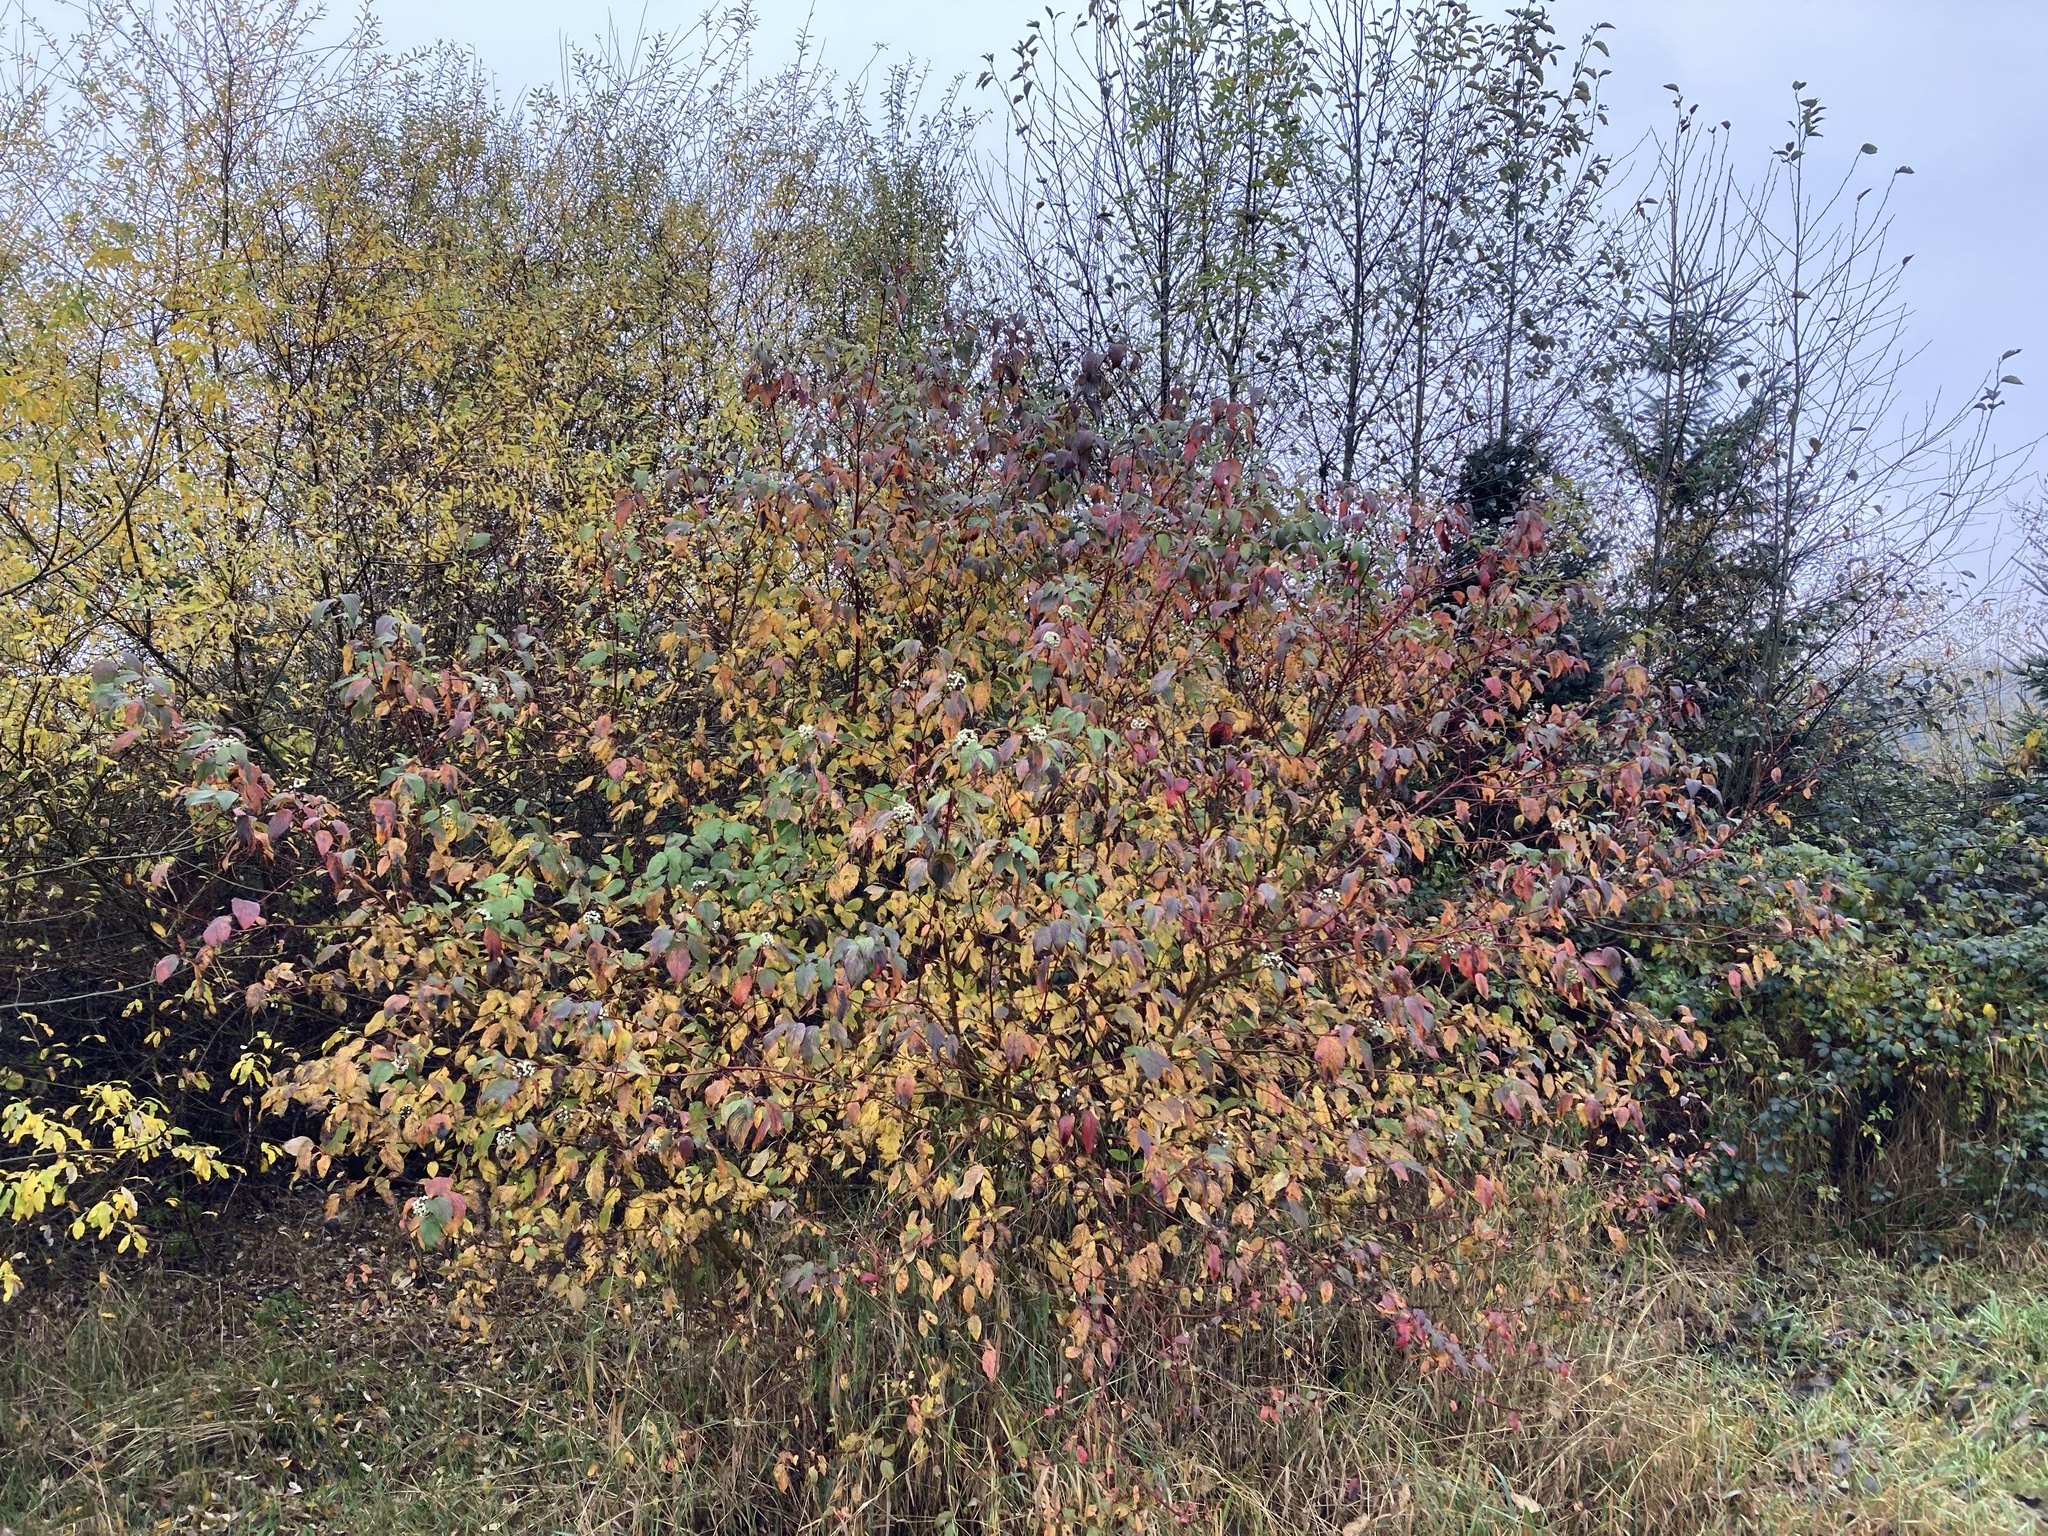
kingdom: Plantae
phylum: Tracheophyta
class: Magnoliopsida
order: Cornales
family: Cornaceae
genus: Cornus
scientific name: Cornus sericea
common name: Red-osier dogwood
